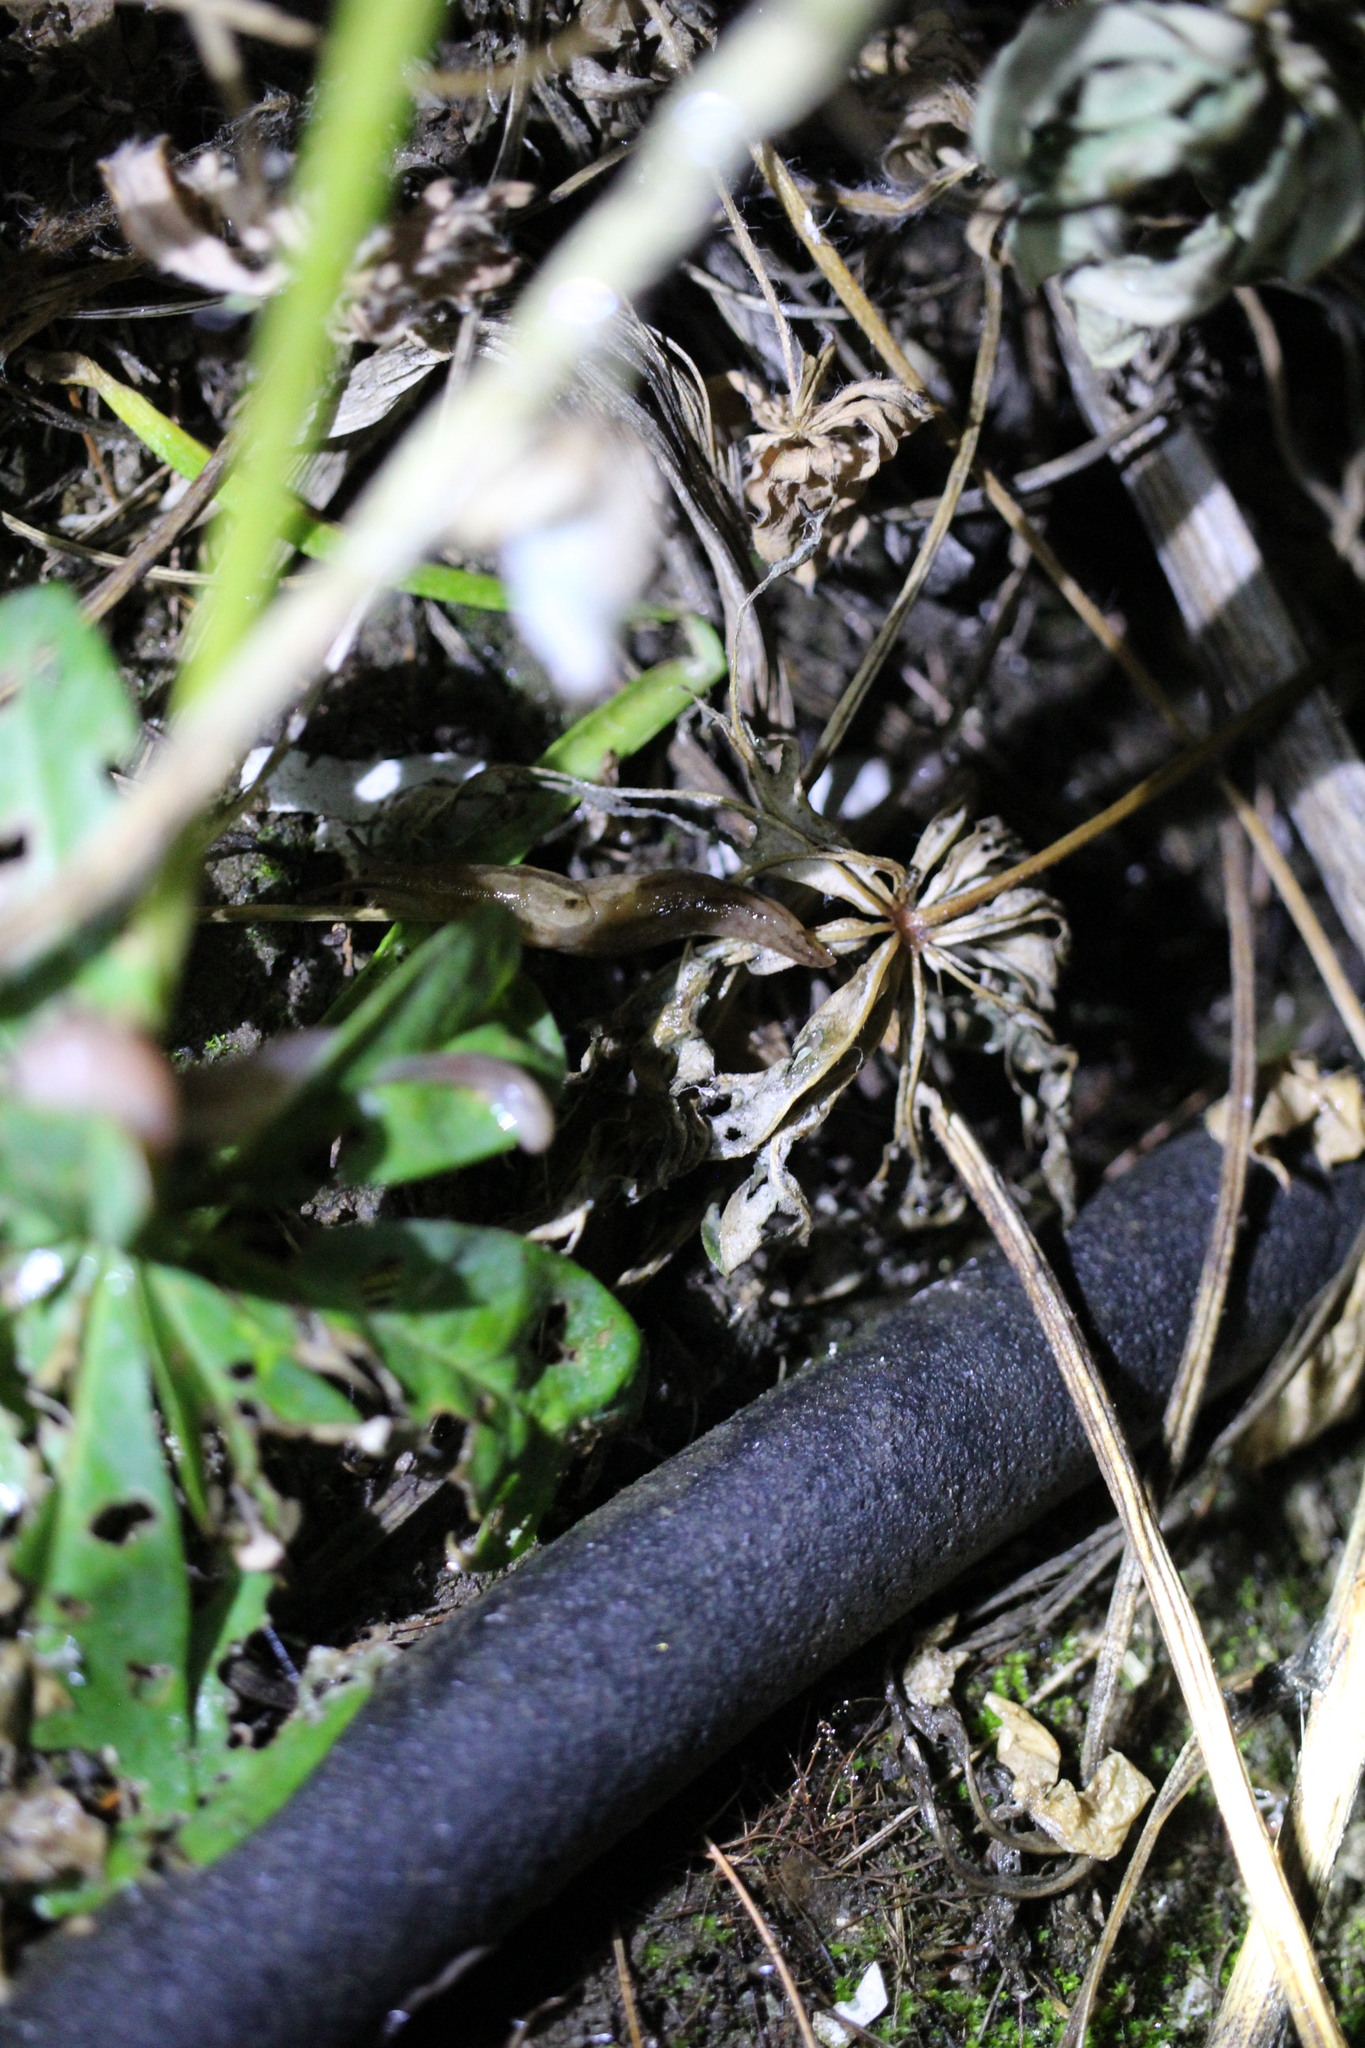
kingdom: Animalia
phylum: Mollusca
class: Gastropoda
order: Stylommatophora
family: Limacidae
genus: Ambigolimax
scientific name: Ambigolimax
